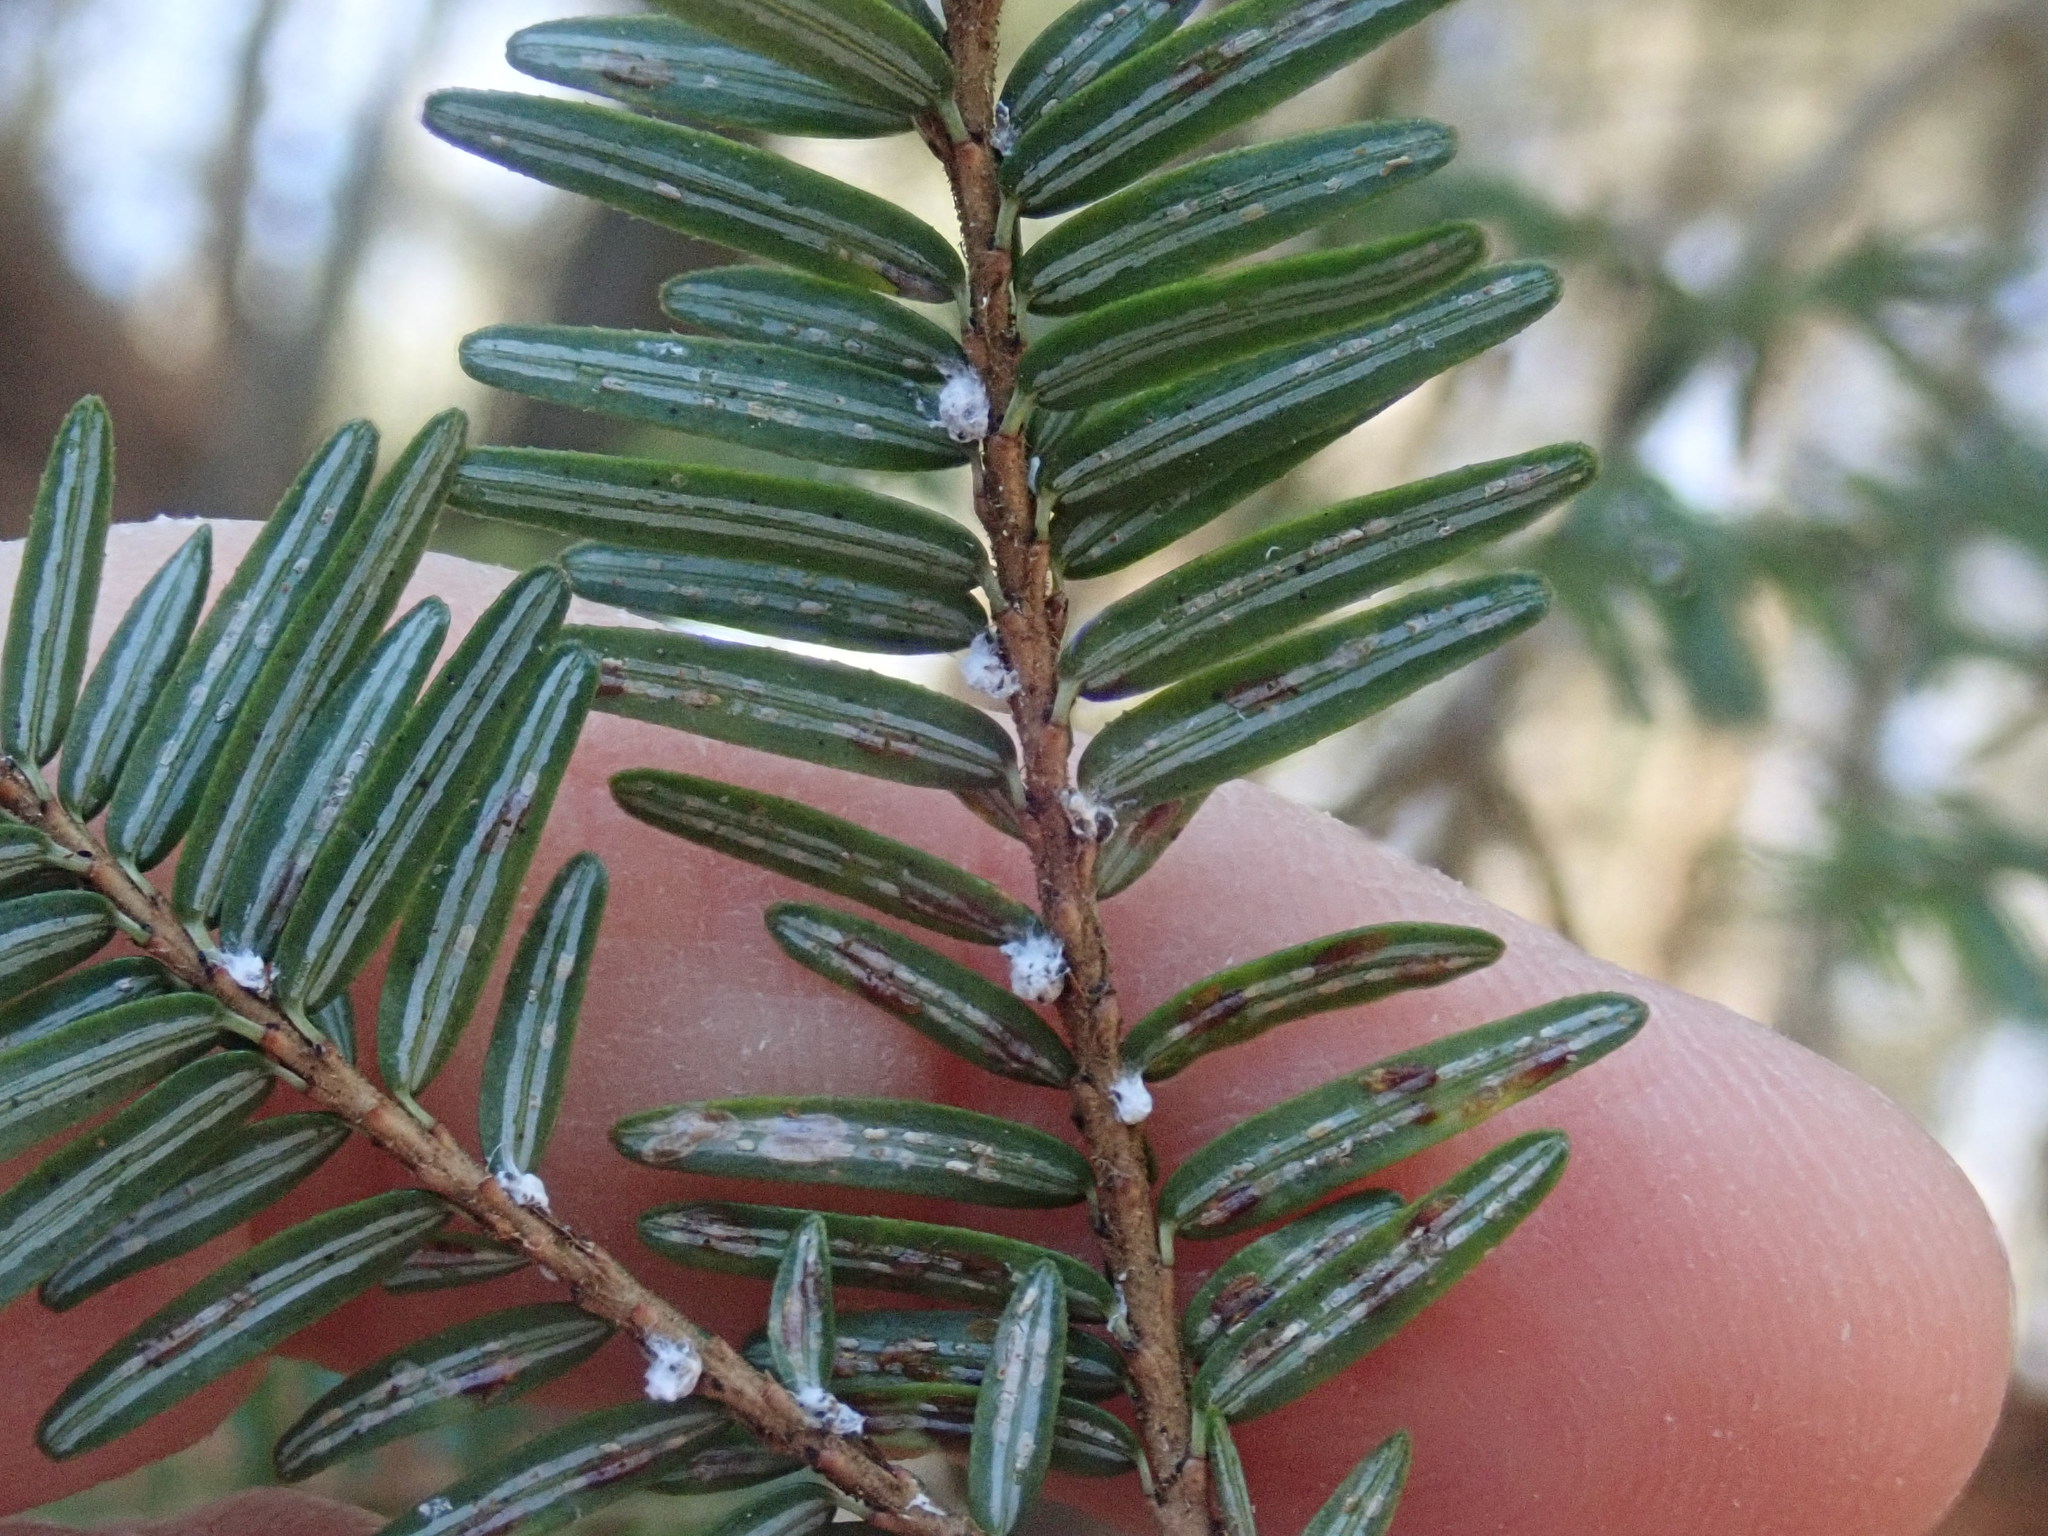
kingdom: Animalia
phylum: Arthropoda
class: Insecta
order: Hemiptera
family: Adelgidae
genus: Adelges
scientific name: Adelges tsugae
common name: Hemlock woolly adelgid
